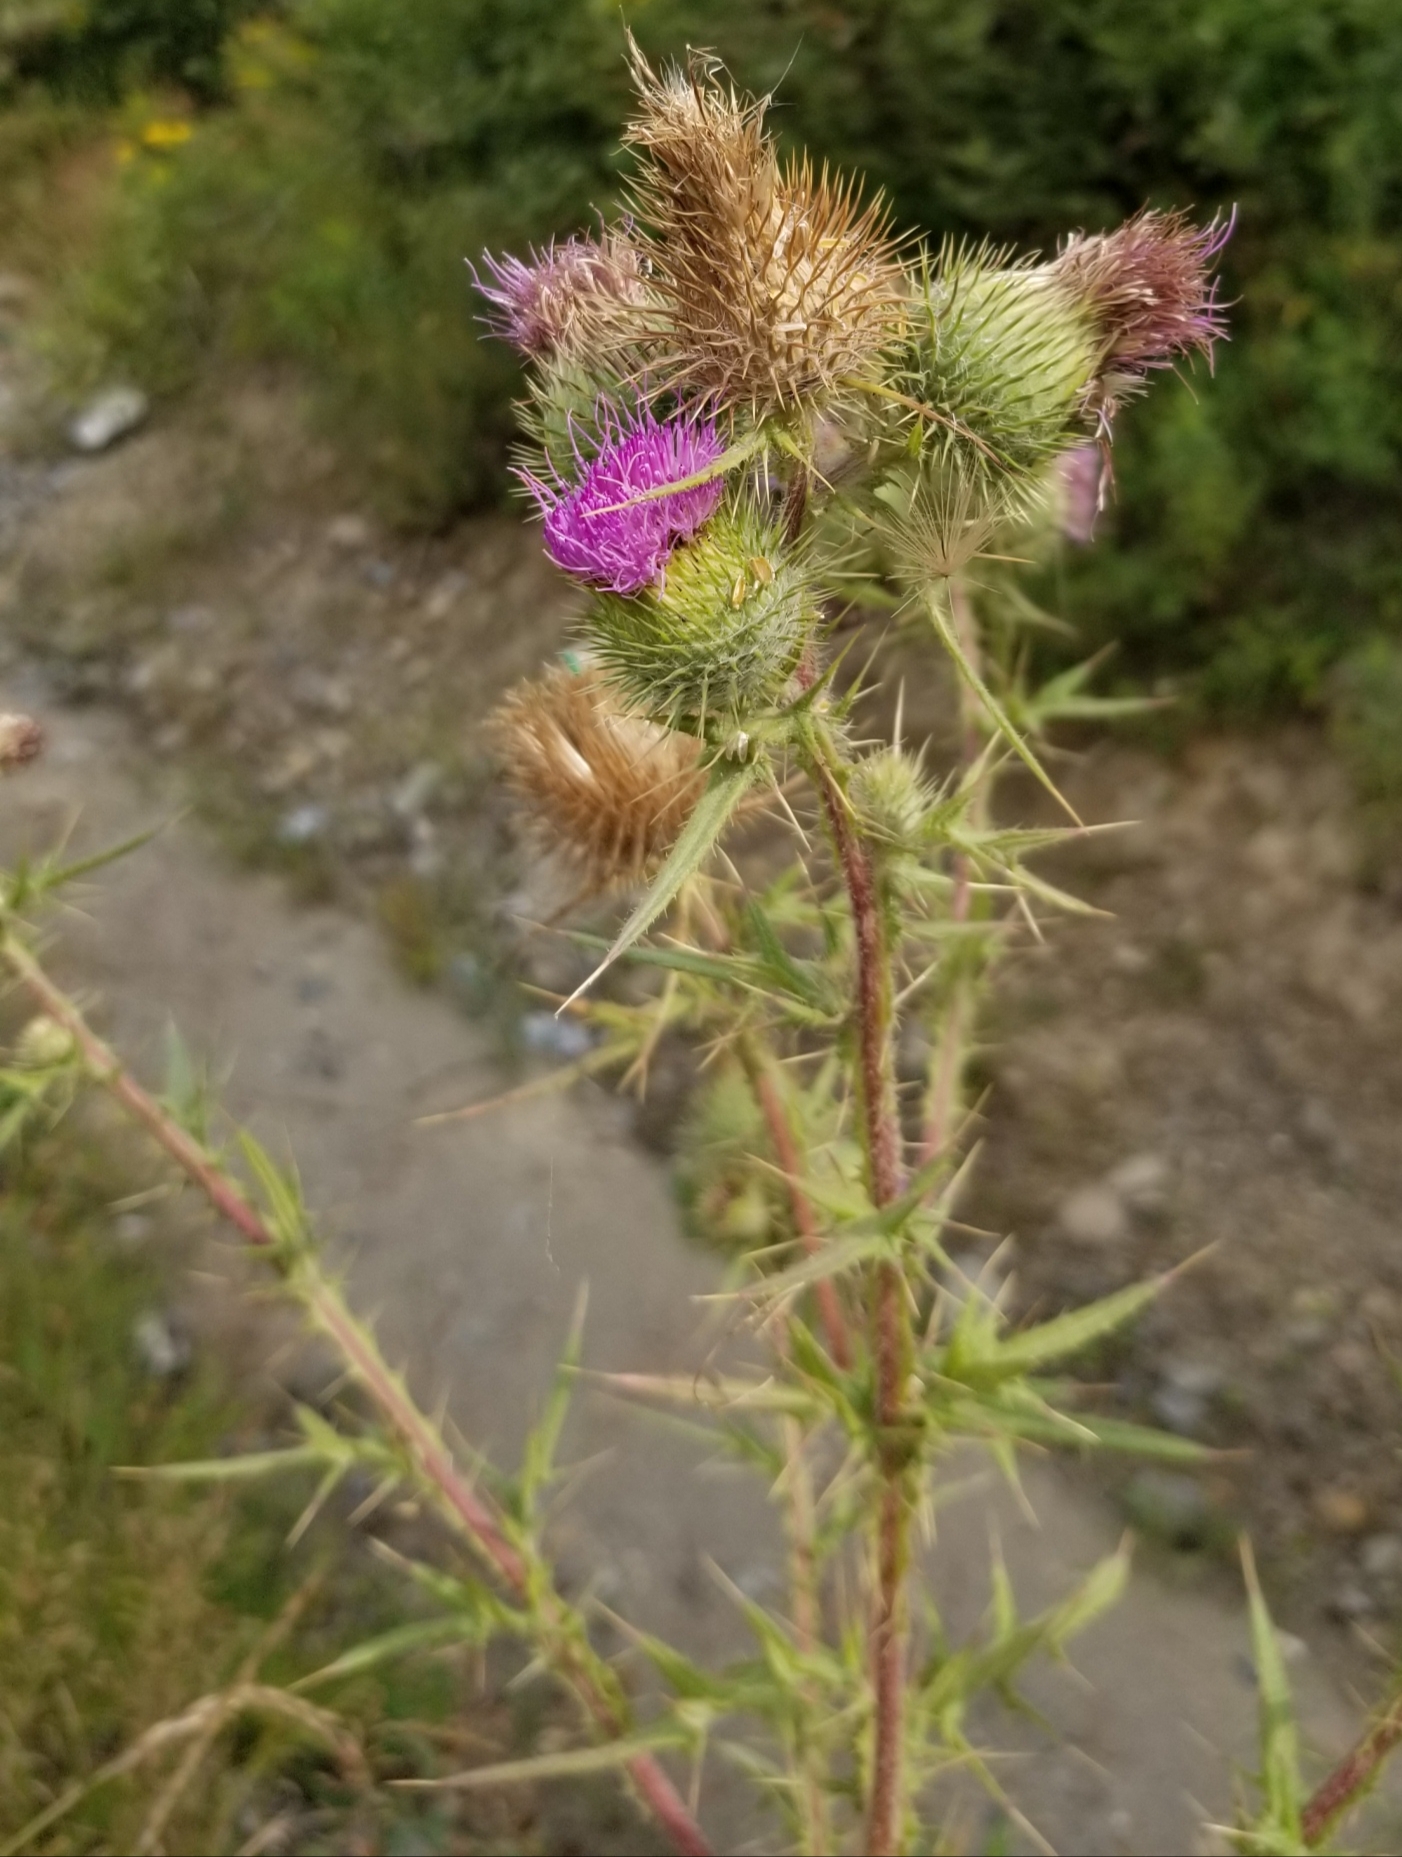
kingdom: Plantae
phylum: Tracheophyta
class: Magnoliopsida
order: Asterales
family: Asteraceae
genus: Cirsium
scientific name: Cirsium vulgare
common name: Bull thistle
